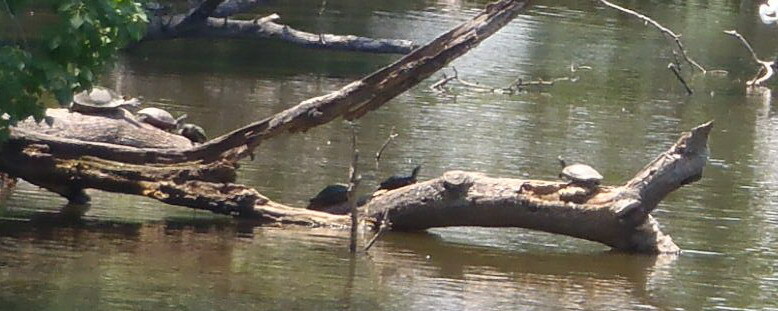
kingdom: Animalia
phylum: Chordata
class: Testudines
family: Emydidae
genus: Pseudemys
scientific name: Pseudemys concinna
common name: Eastern river cooter
